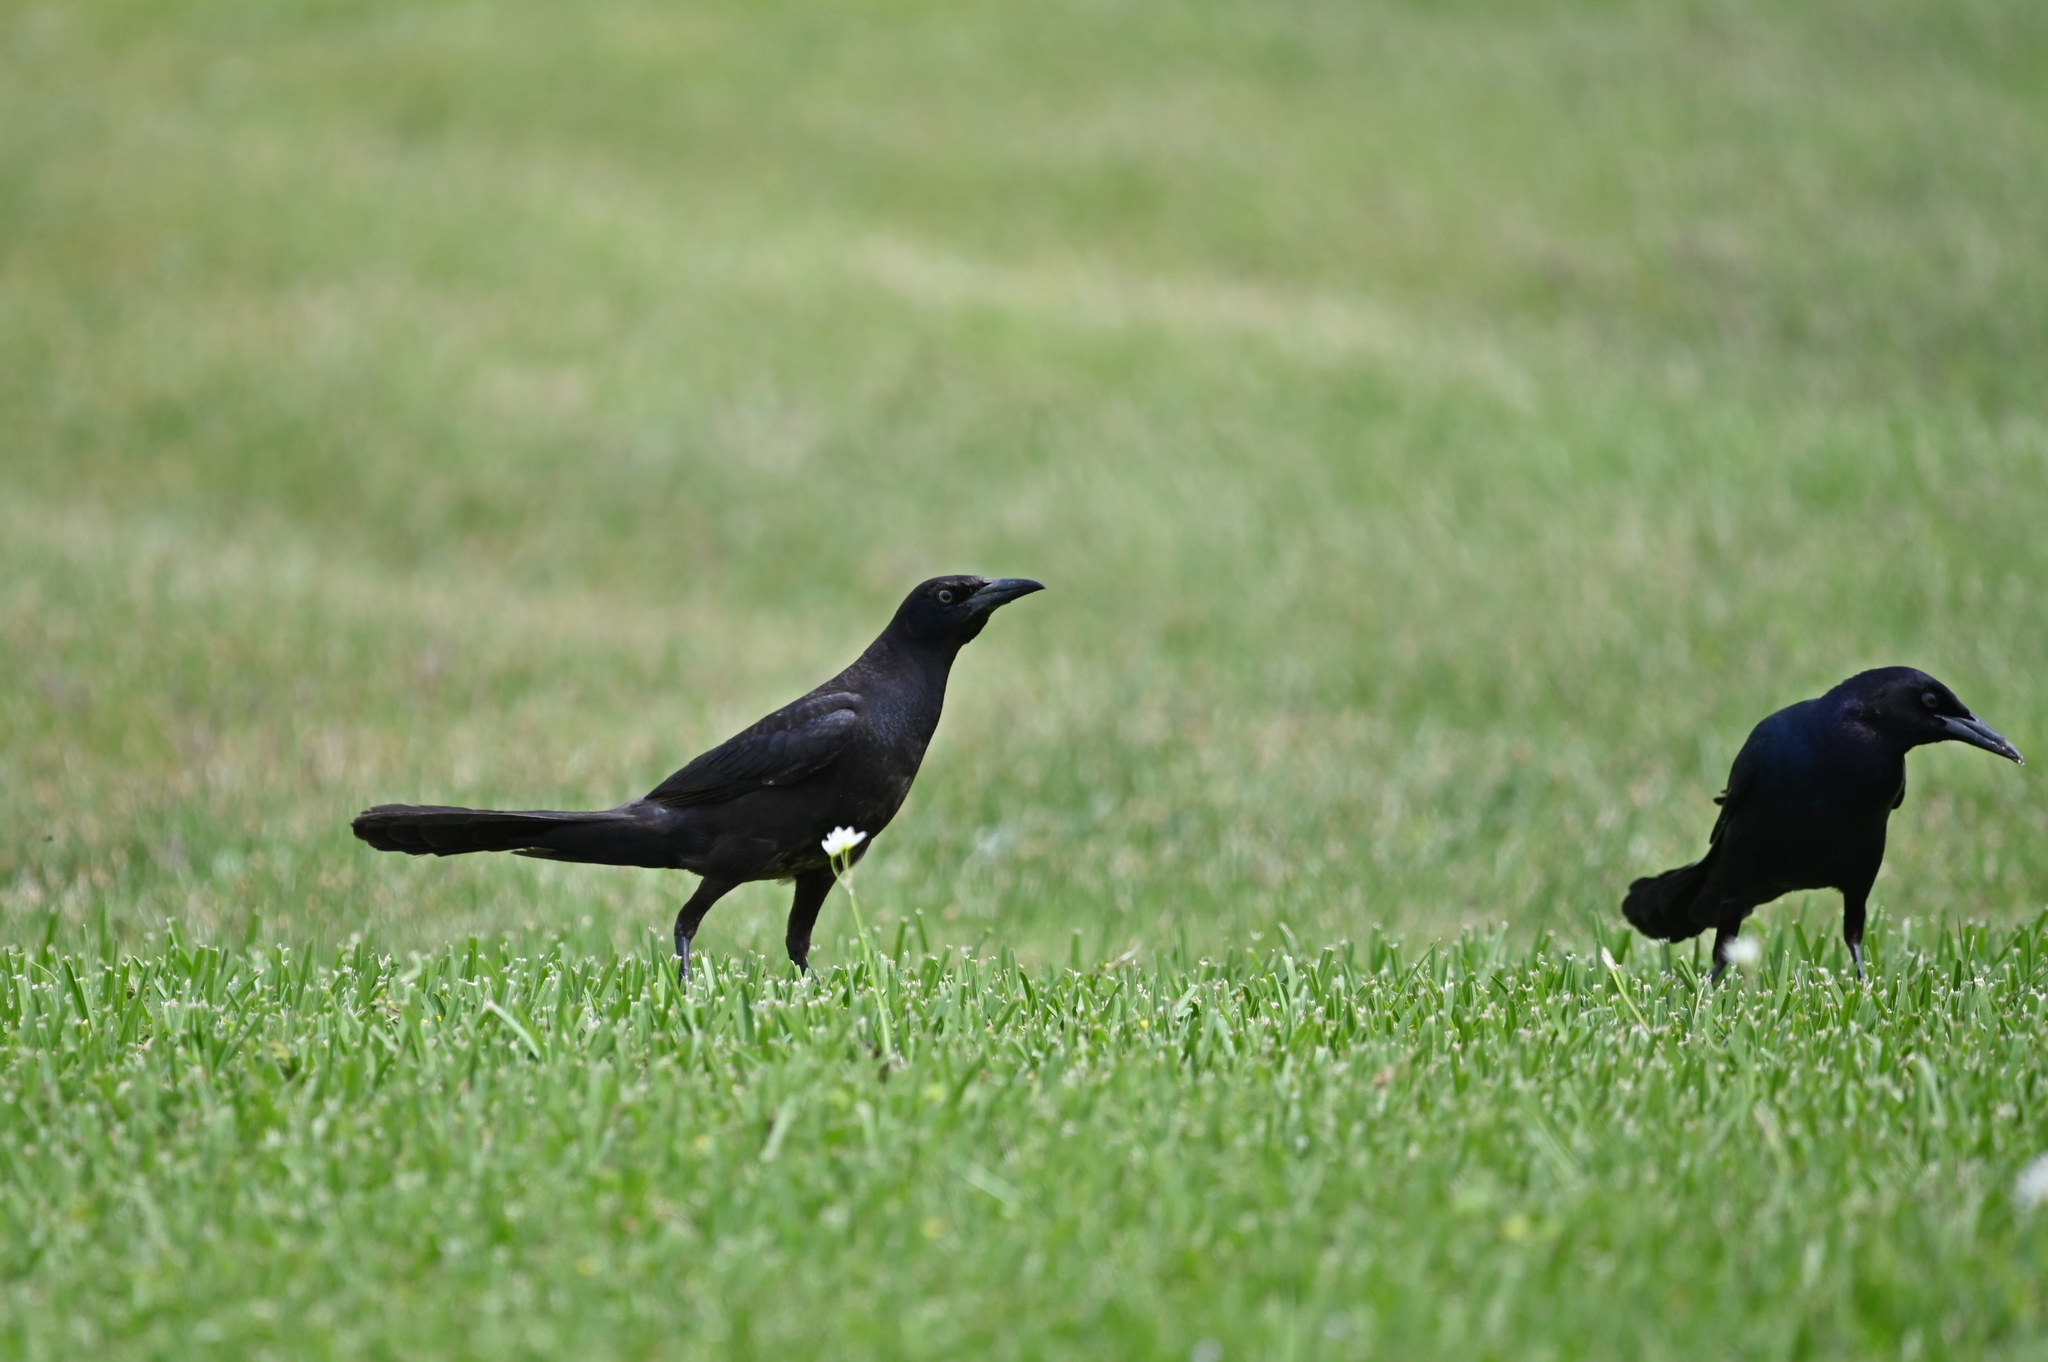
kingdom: Animalia
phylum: Chordata
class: Aves
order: Passeriformes
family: Icteridae
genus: Quiscalus
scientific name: Quiscalus major
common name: Boat-tailed grackle
